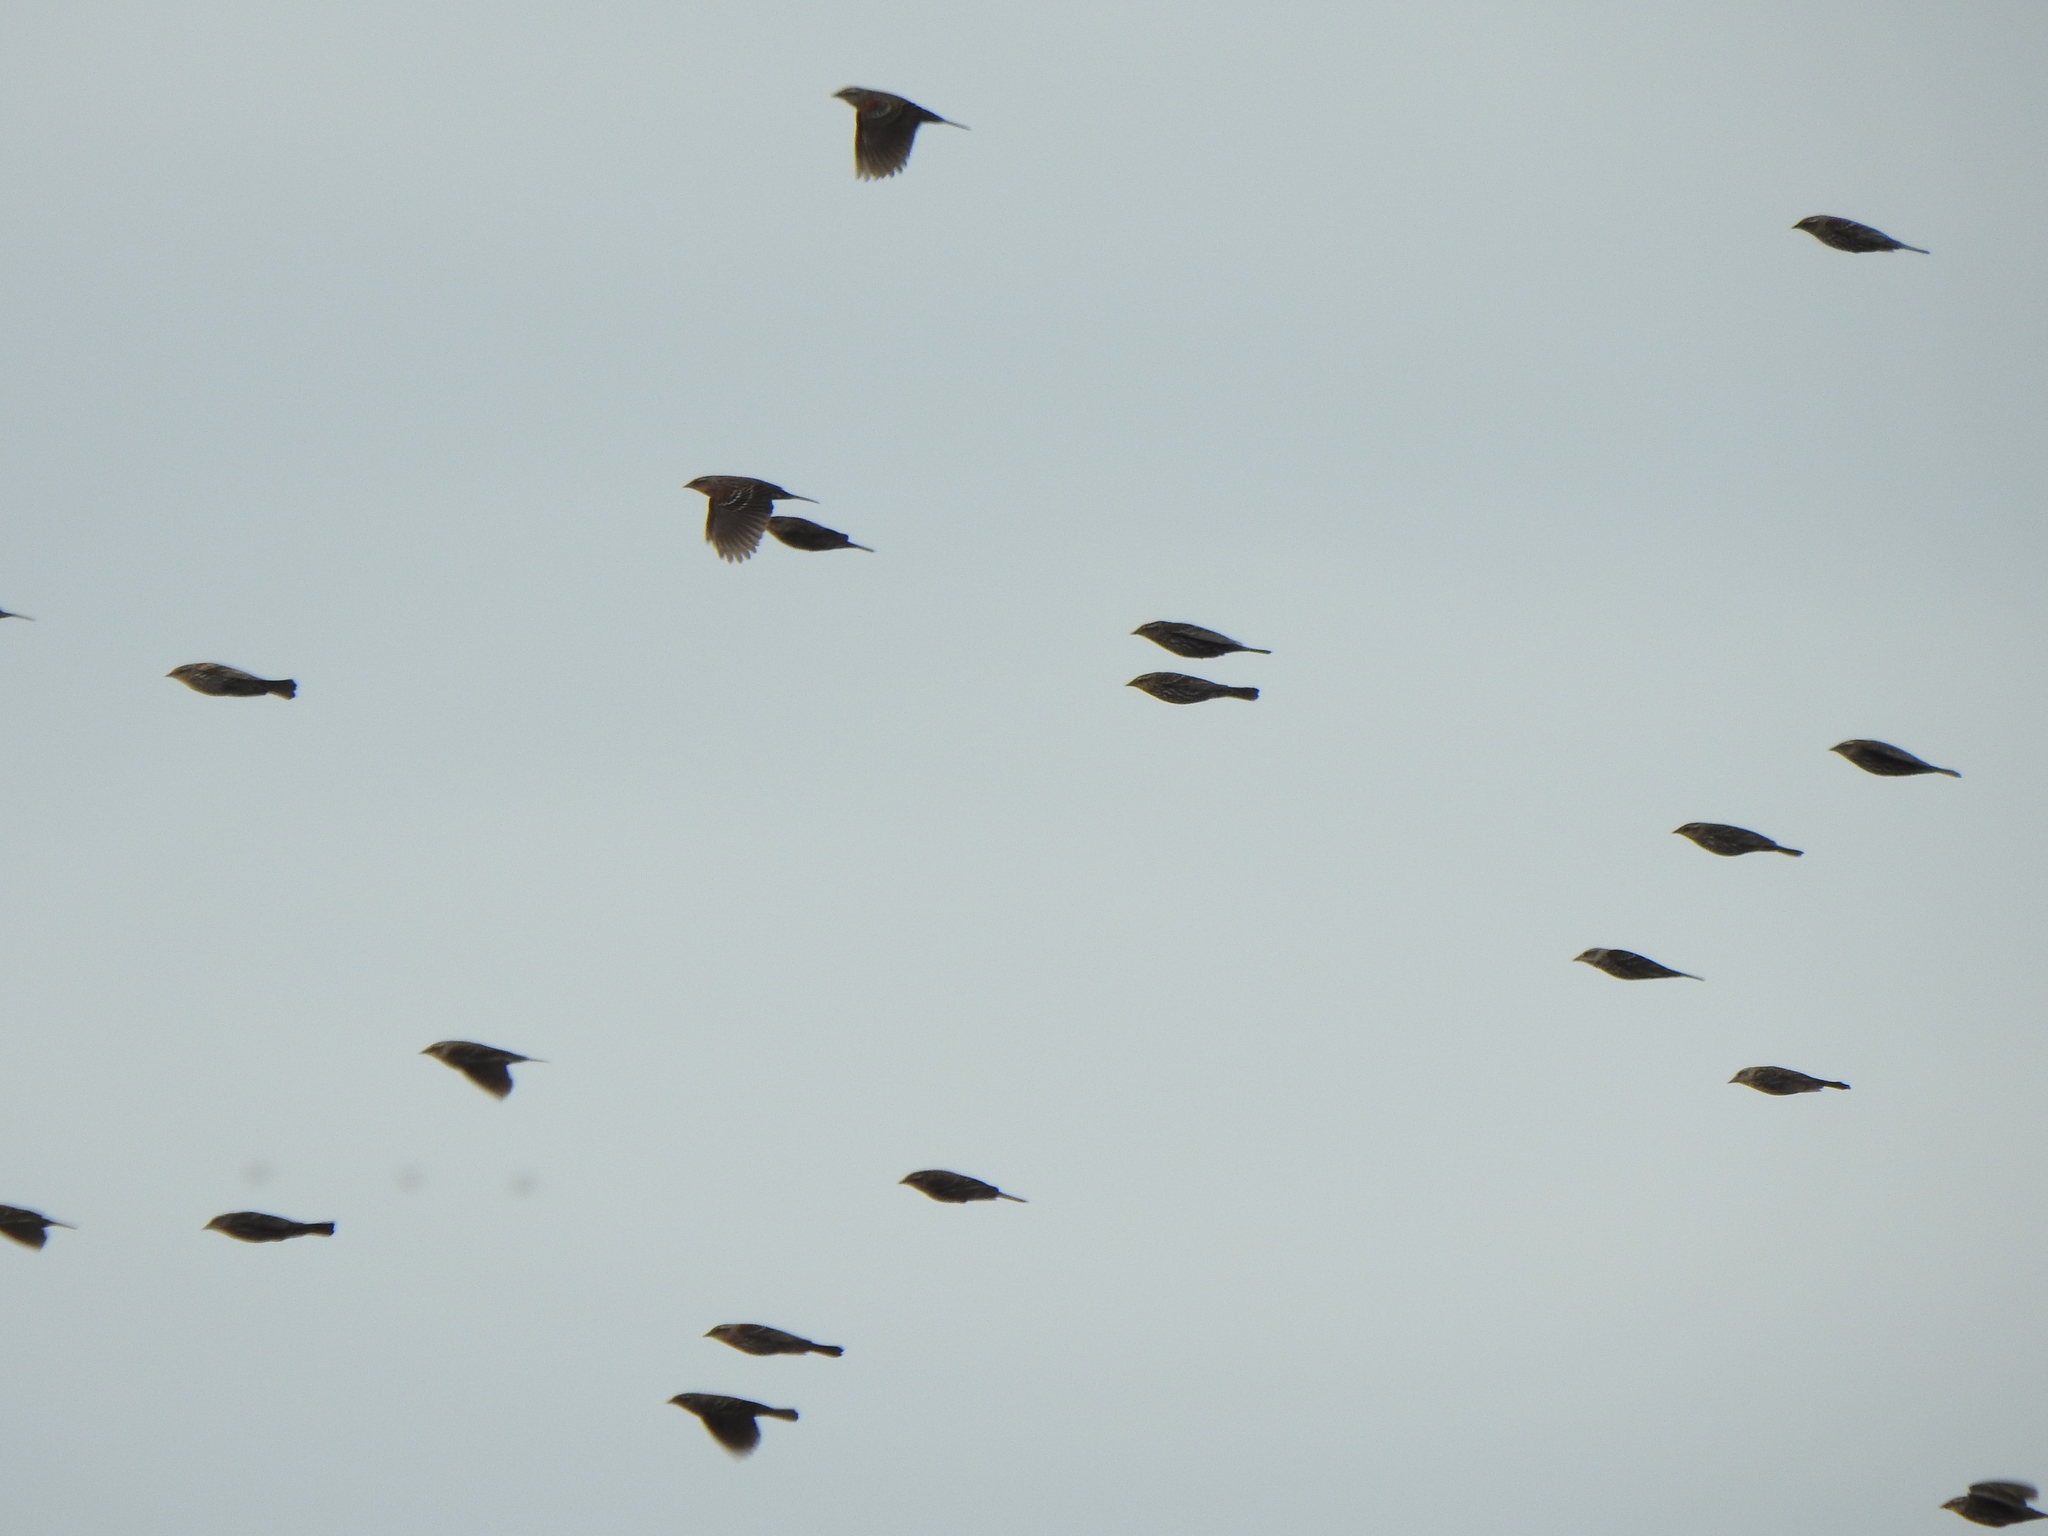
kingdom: Animalia
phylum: Chordata
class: Aves
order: Passeriformes
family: Icteridae
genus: Xanthocephalus
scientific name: Xanthocephalus xanthocephalus
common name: Yellow-headed blackbird
